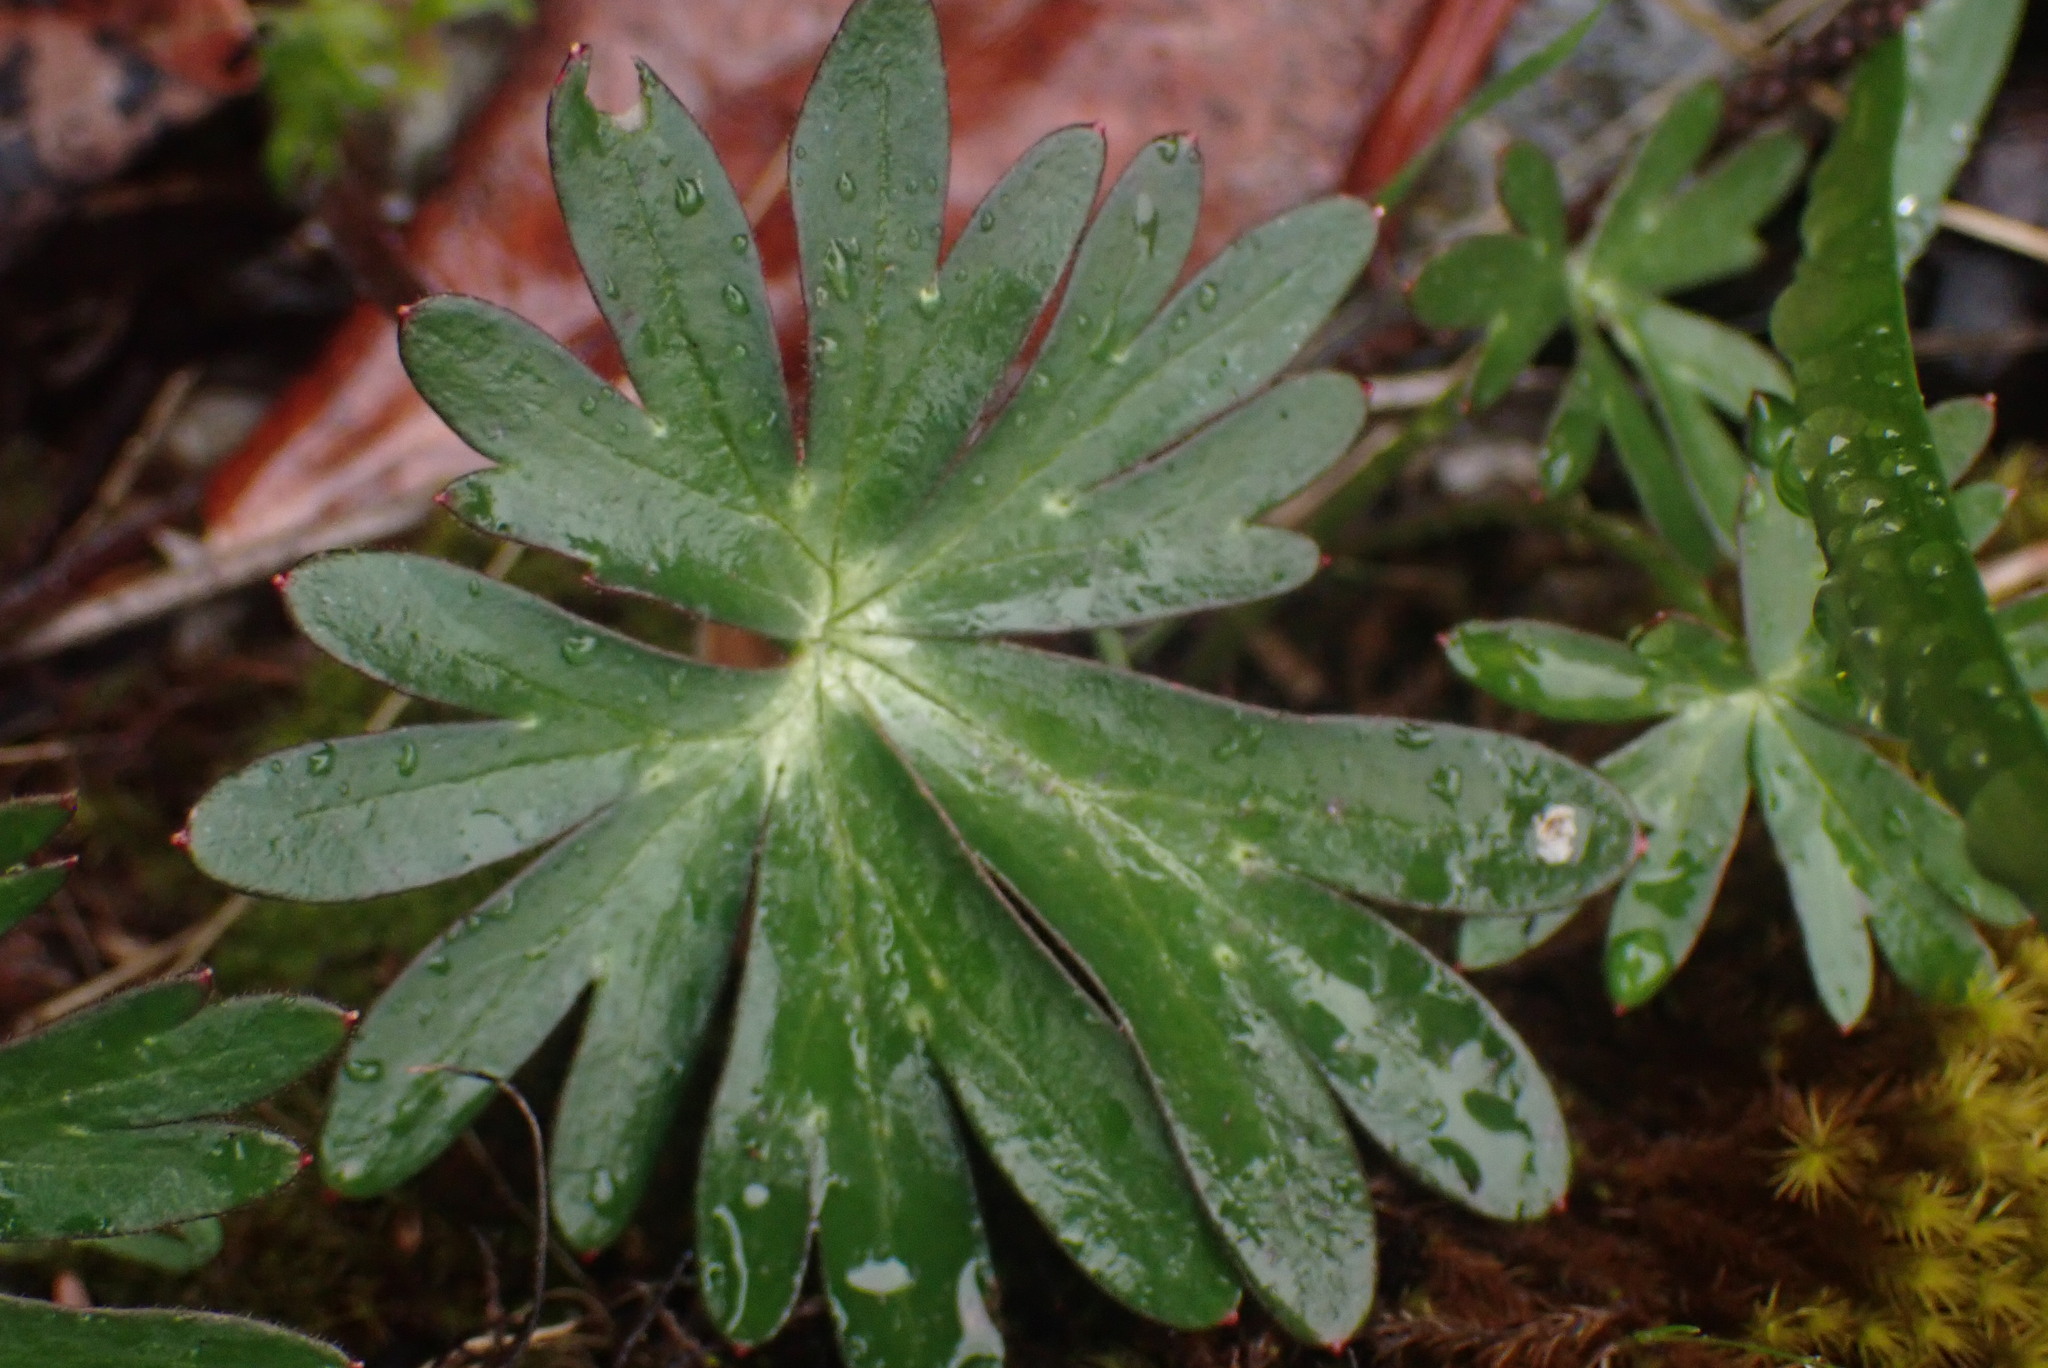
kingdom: Plantae
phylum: Tracheophyta
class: Magnoliopsida
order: Ranunculales
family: Ranunculaceae
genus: Delphinium
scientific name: Delphinium menziesii
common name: Menzies's larkspur
